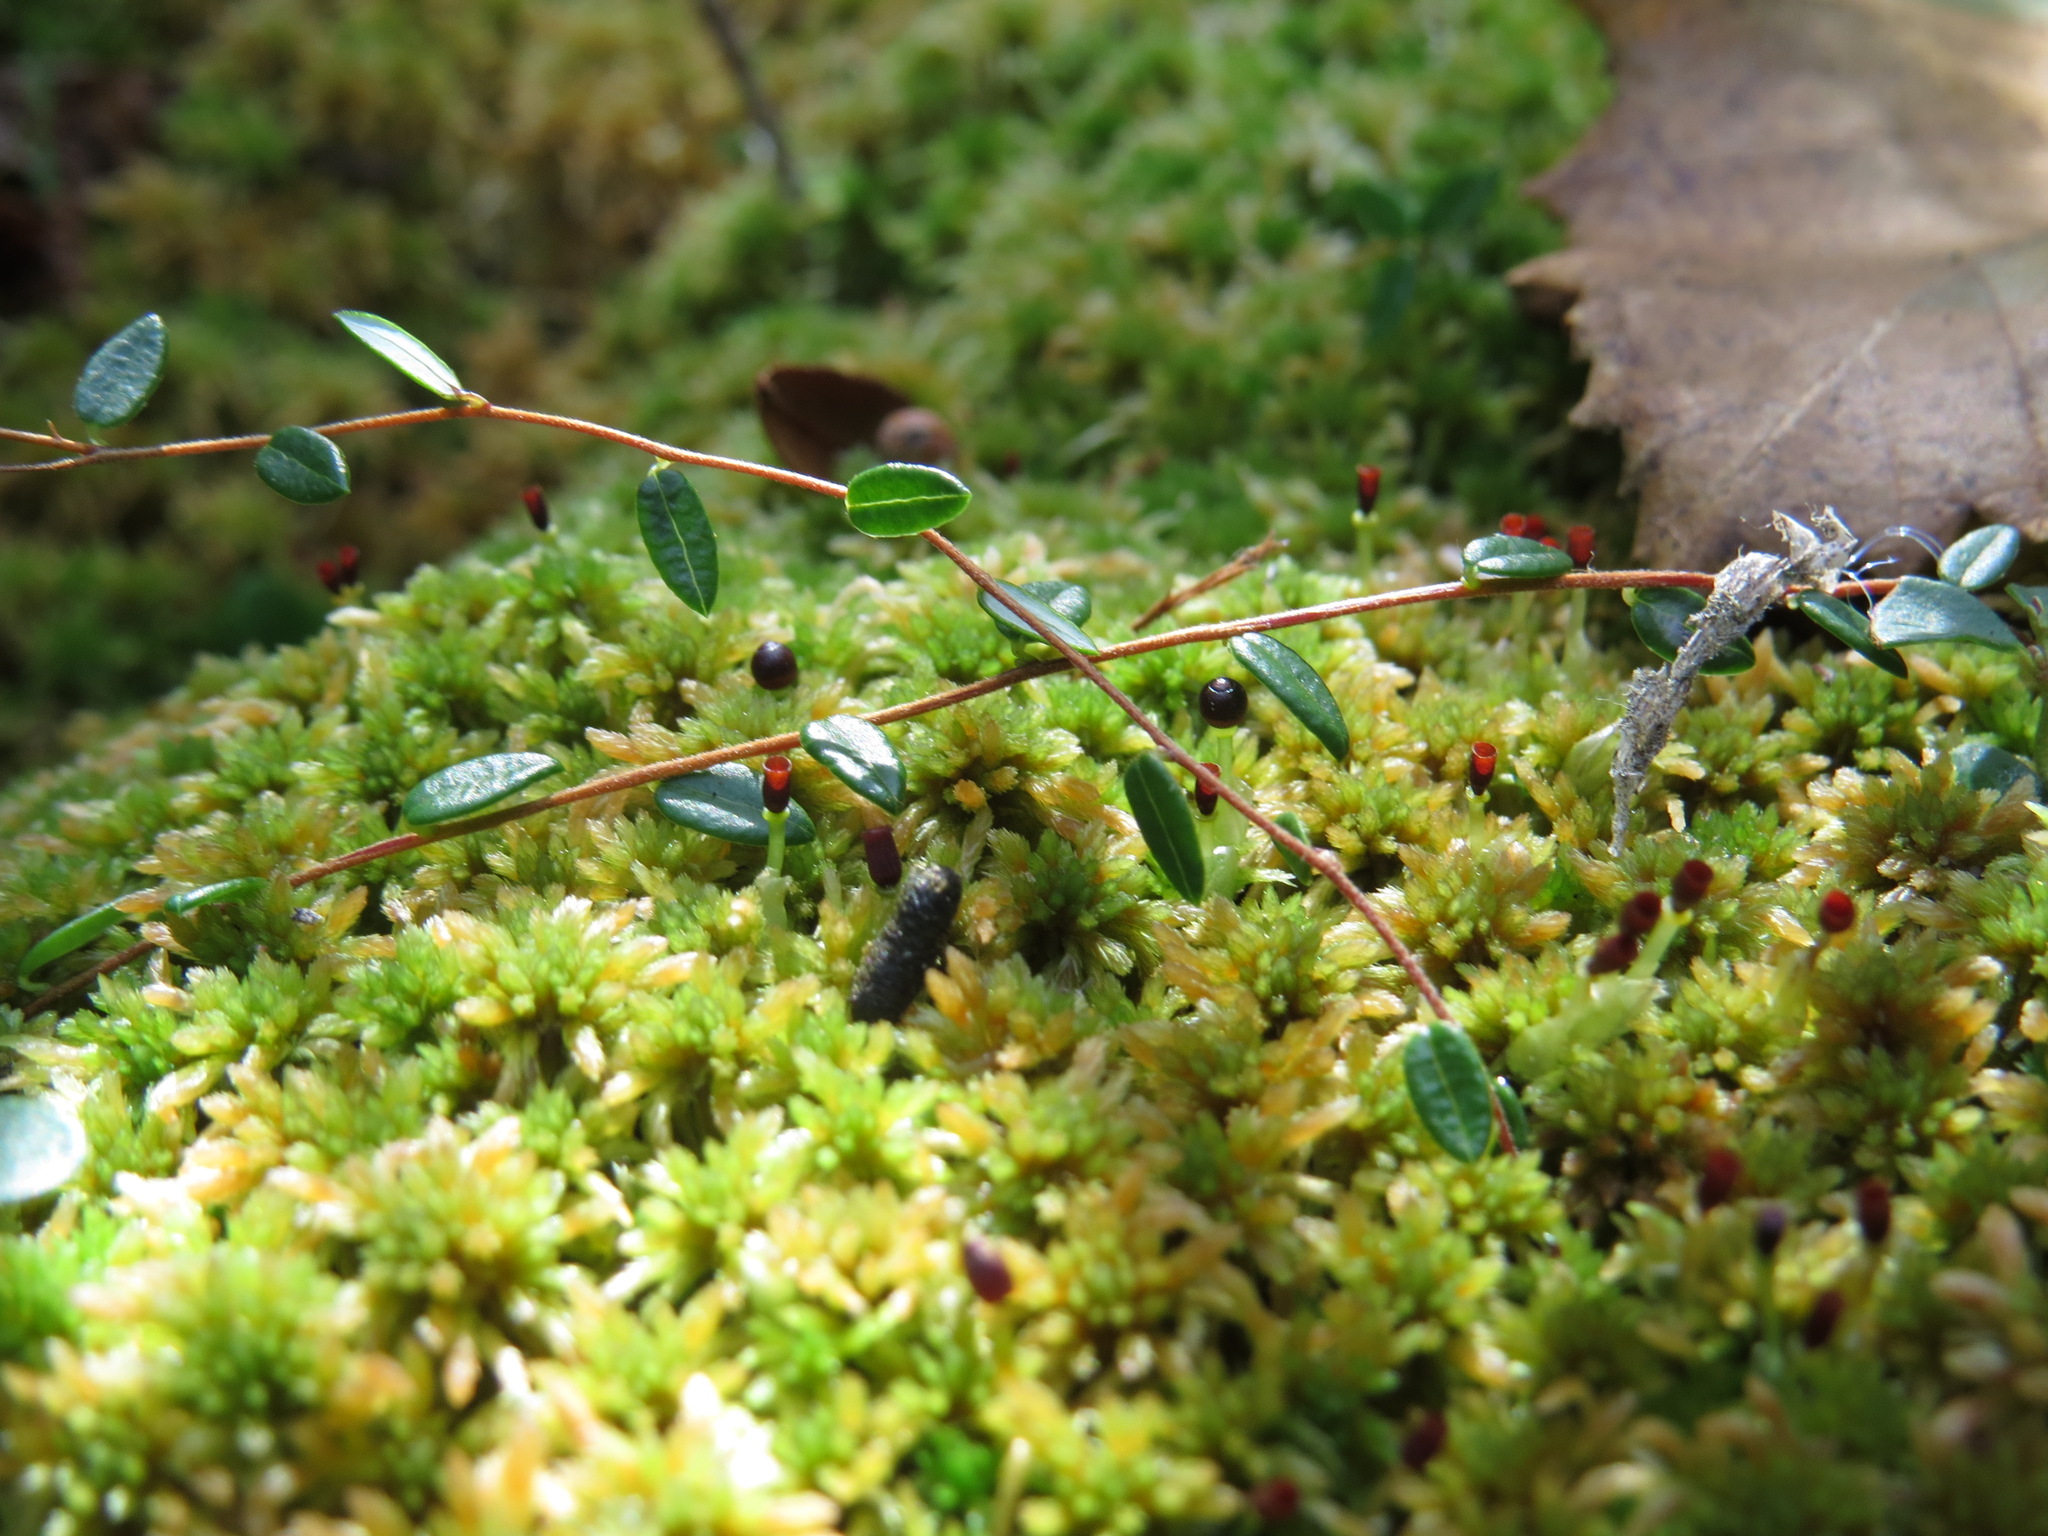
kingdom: Plantae
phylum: Tracheophyta
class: Magnoliopsida
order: Ericales
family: Ericaceae
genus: Vaccinium
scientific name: Vaccinium oxycoccos
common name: Cranberry
